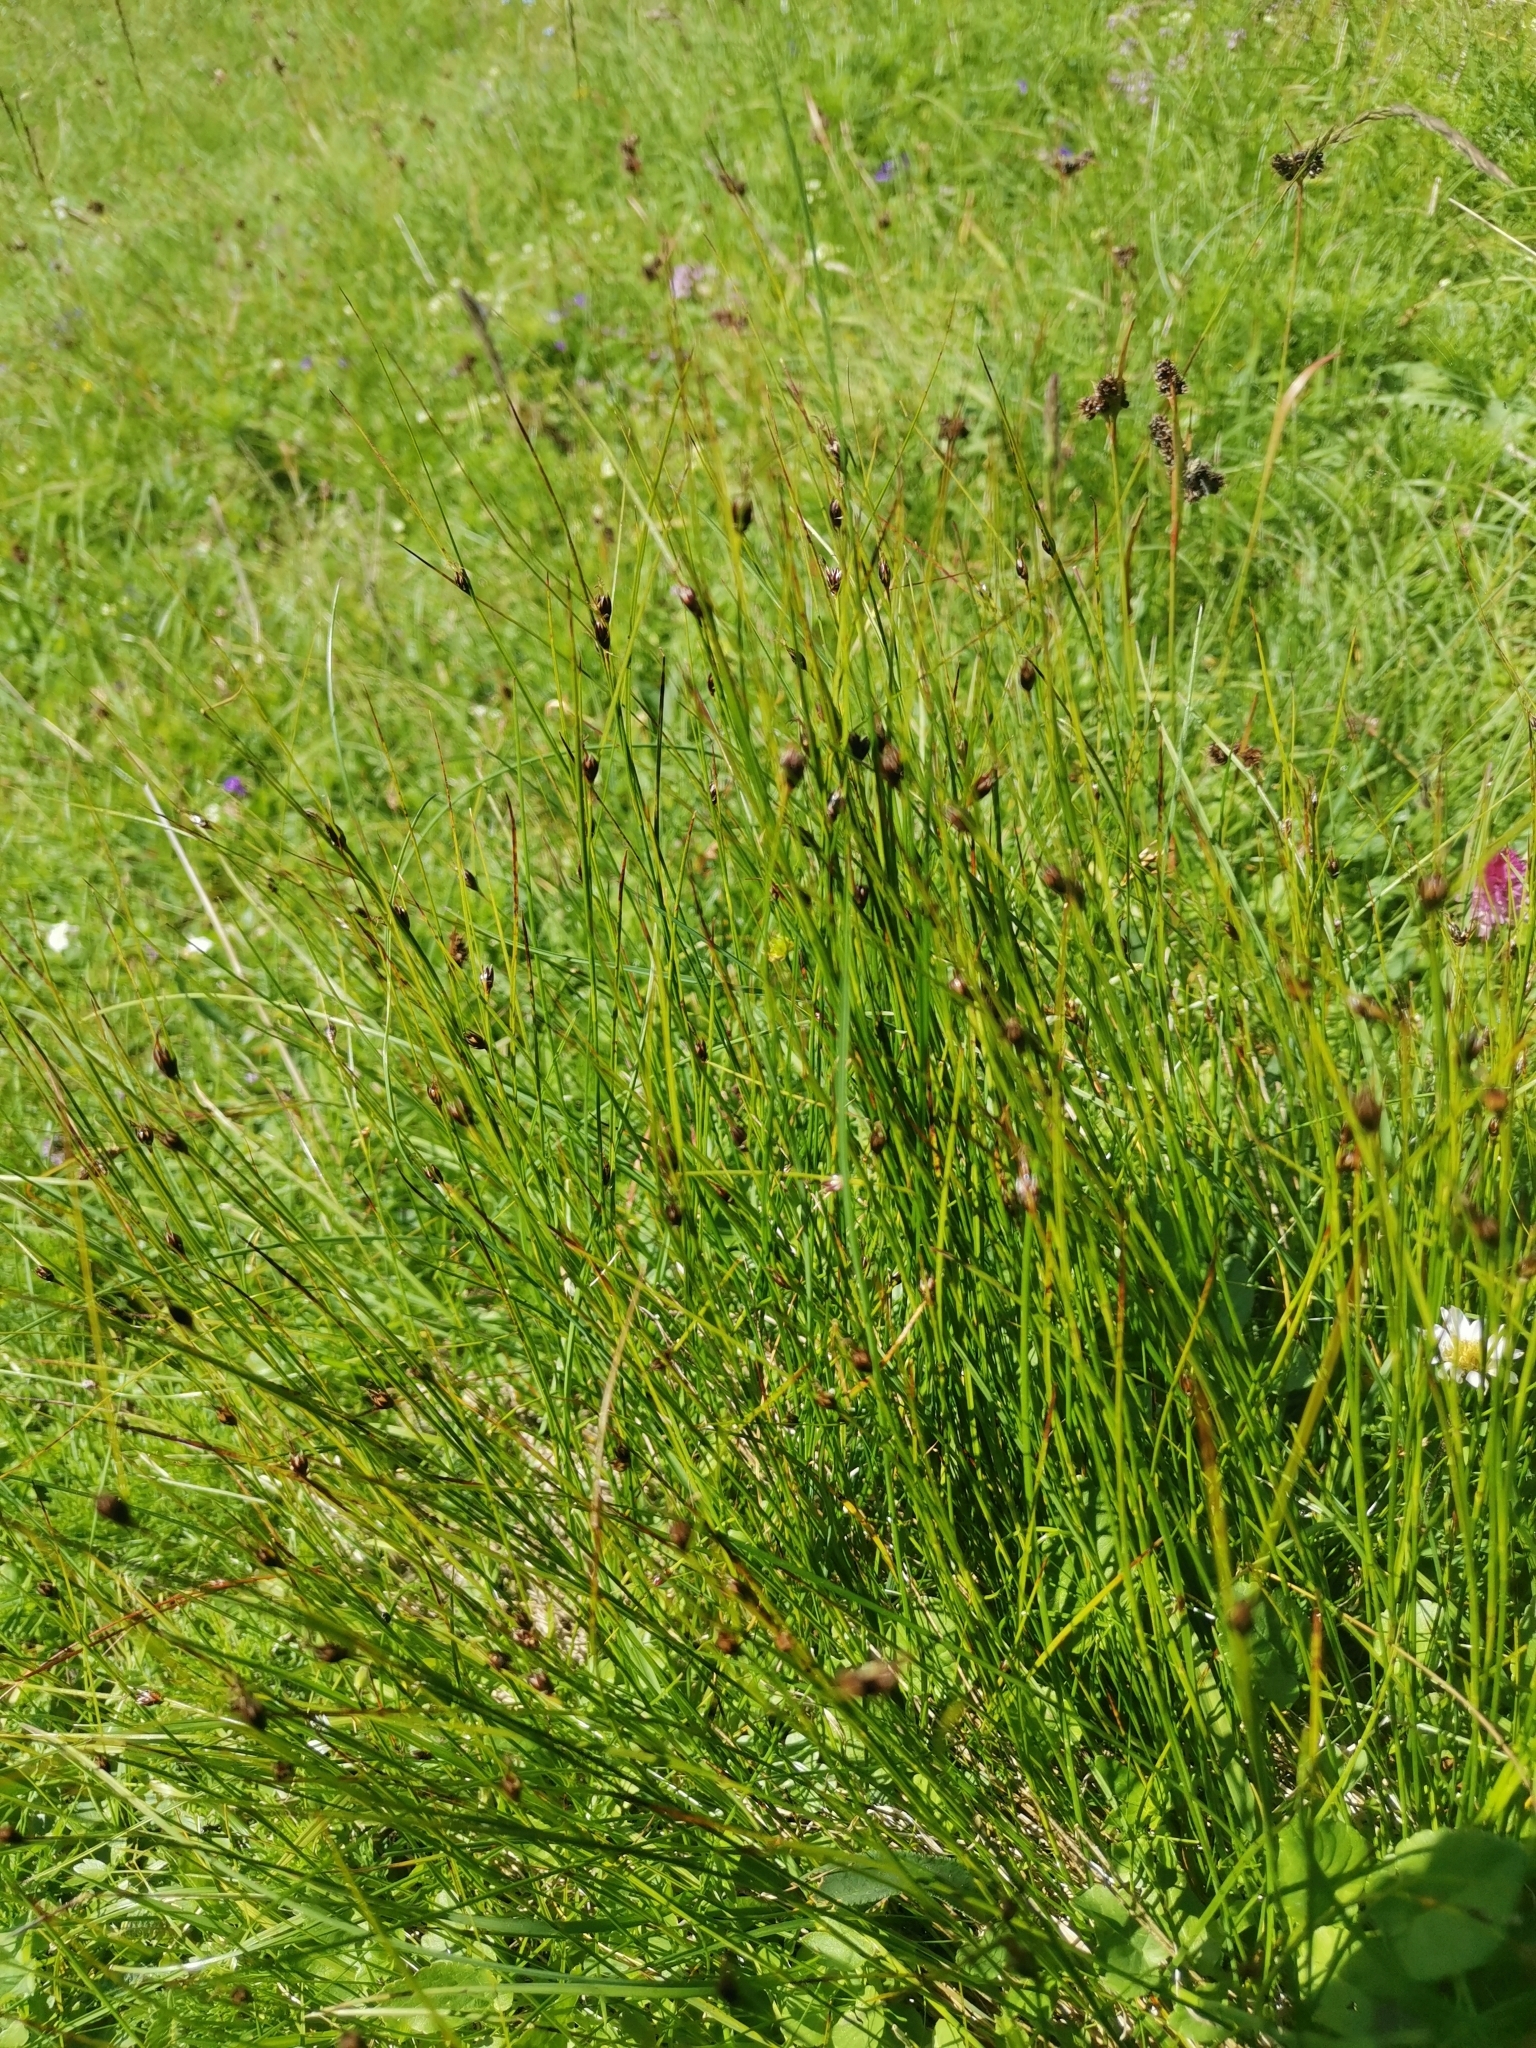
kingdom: Plantae
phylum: Tracheophyta
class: Liliopsida
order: Poales
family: Juncaceae
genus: Oreojuncus
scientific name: Oreojuncus monanthos
